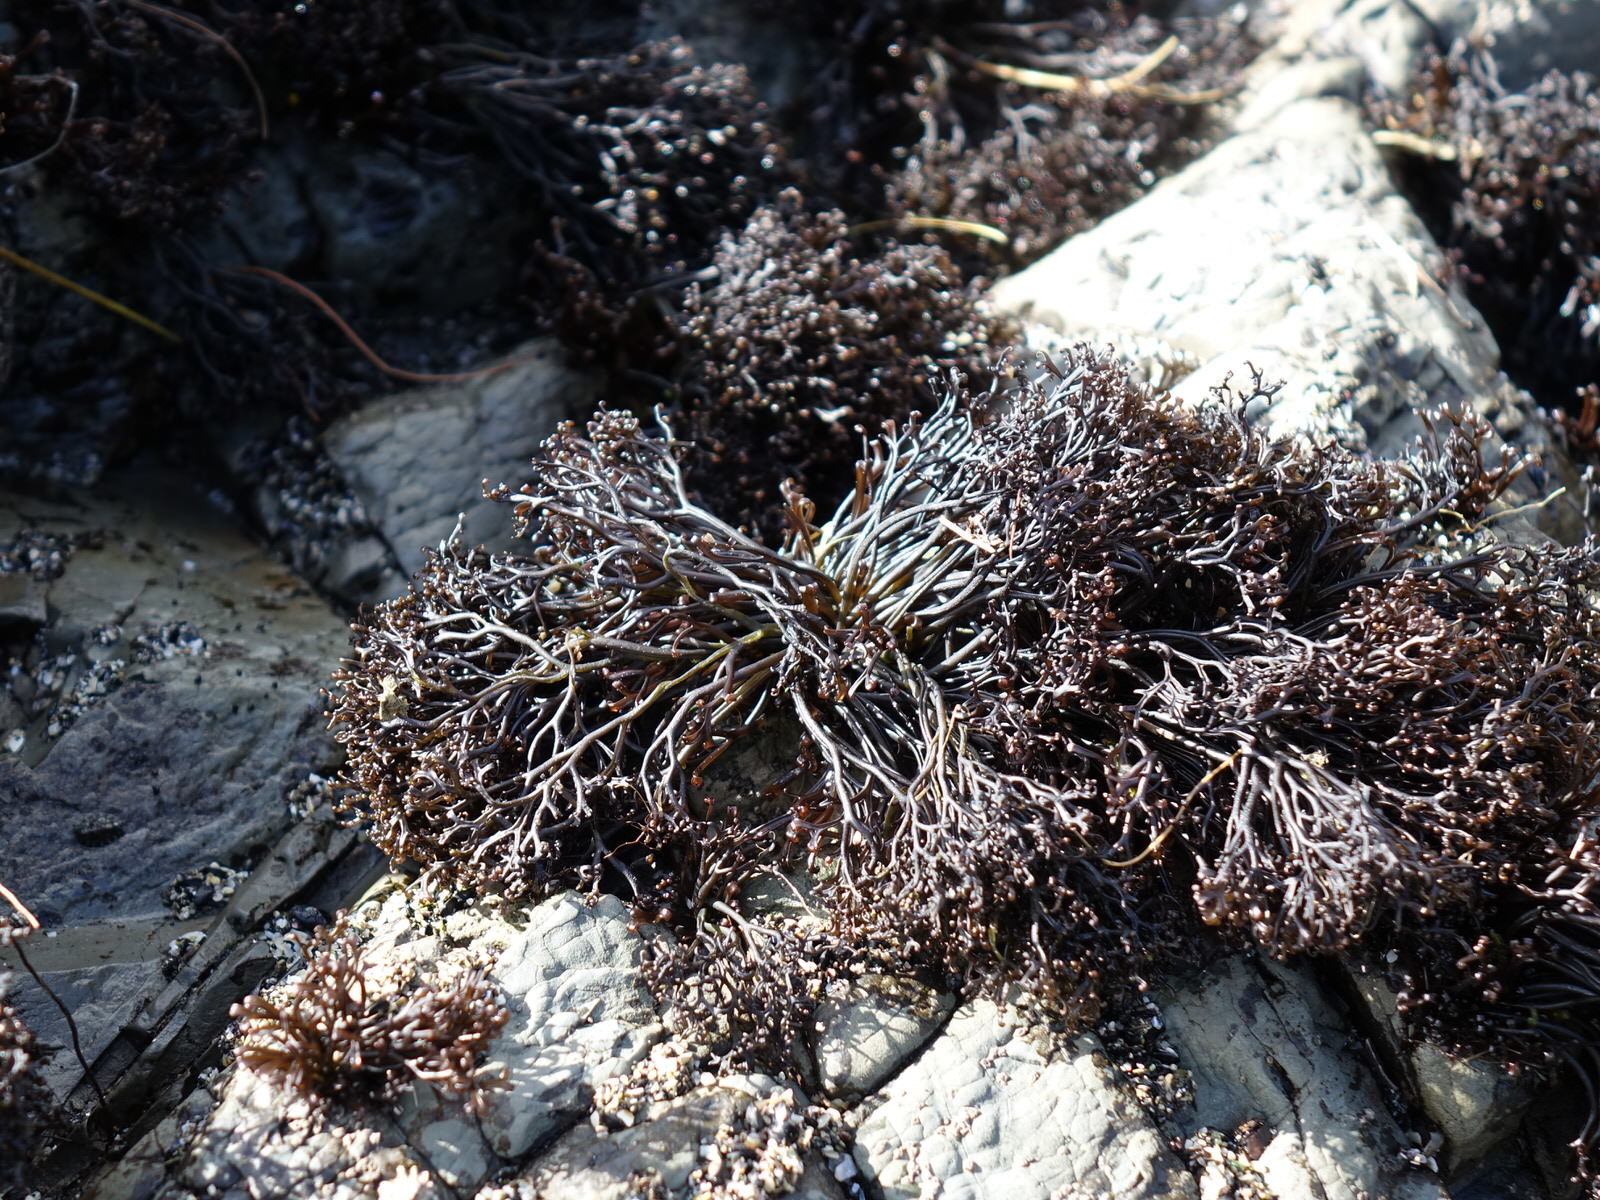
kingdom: Plantae
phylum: Rhodophyta
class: Florideophyceae
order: Gigartinales
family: Gigartinaceae
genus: Psilophycus
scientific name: Psilophycus alveatus
